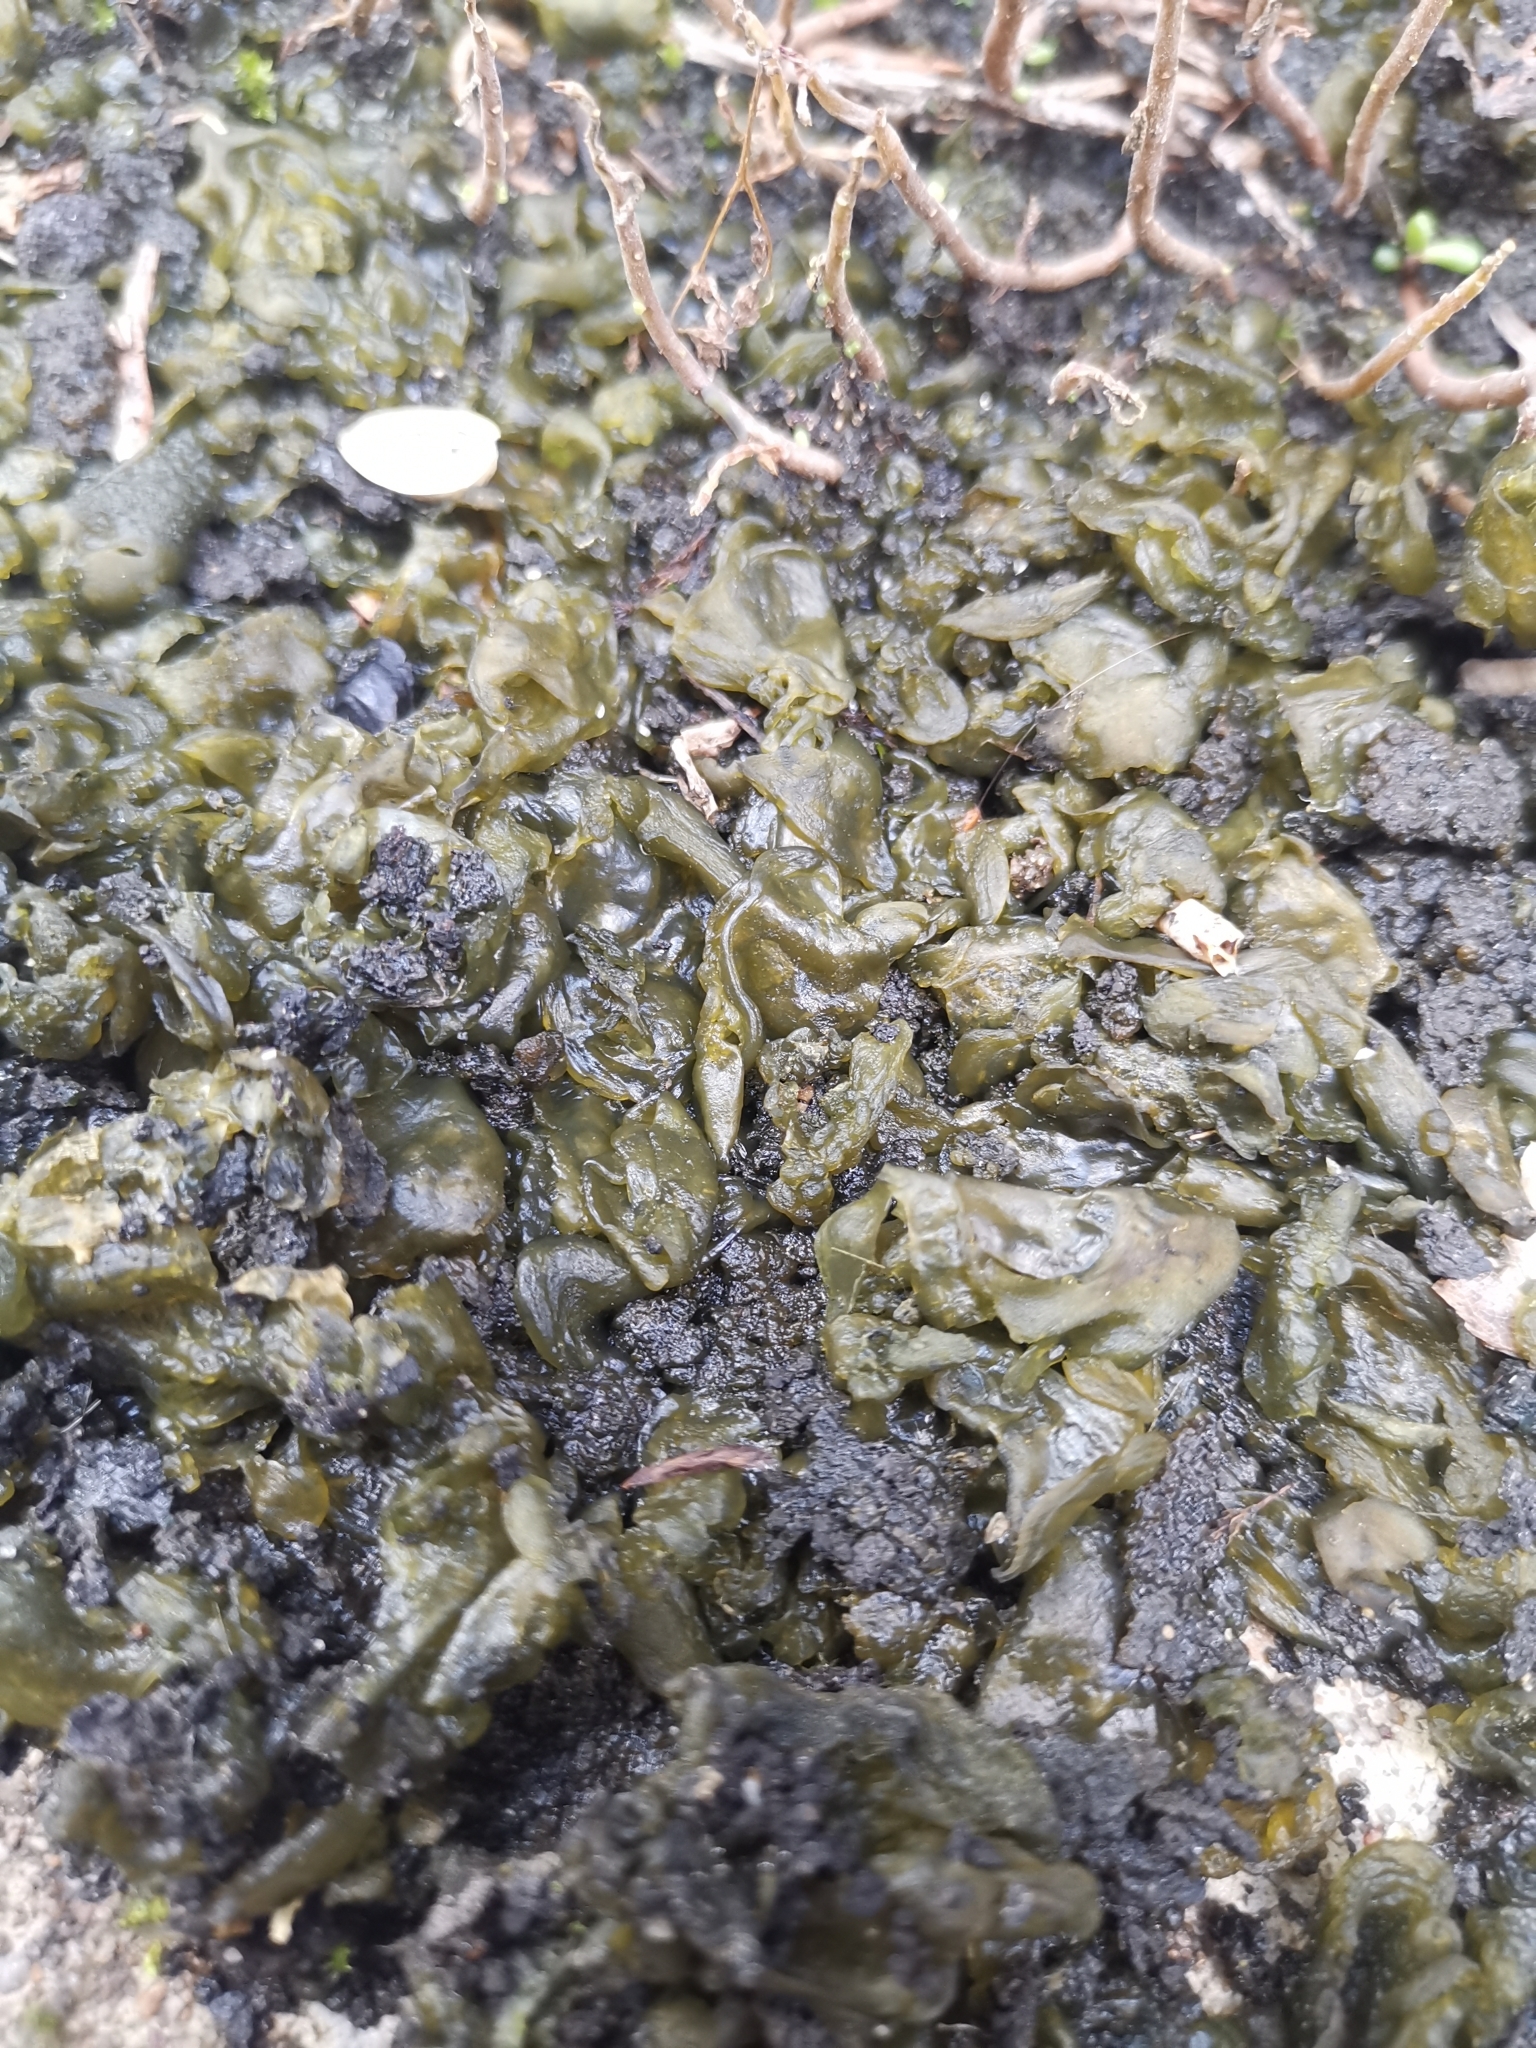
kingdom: Bacteria
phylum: Cyanobacteria
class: Cyanobacteriia
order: Cyanobacteriales
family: Nostocaceae
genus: Nostoc
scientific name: Nostoc commune
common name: Star jelly
